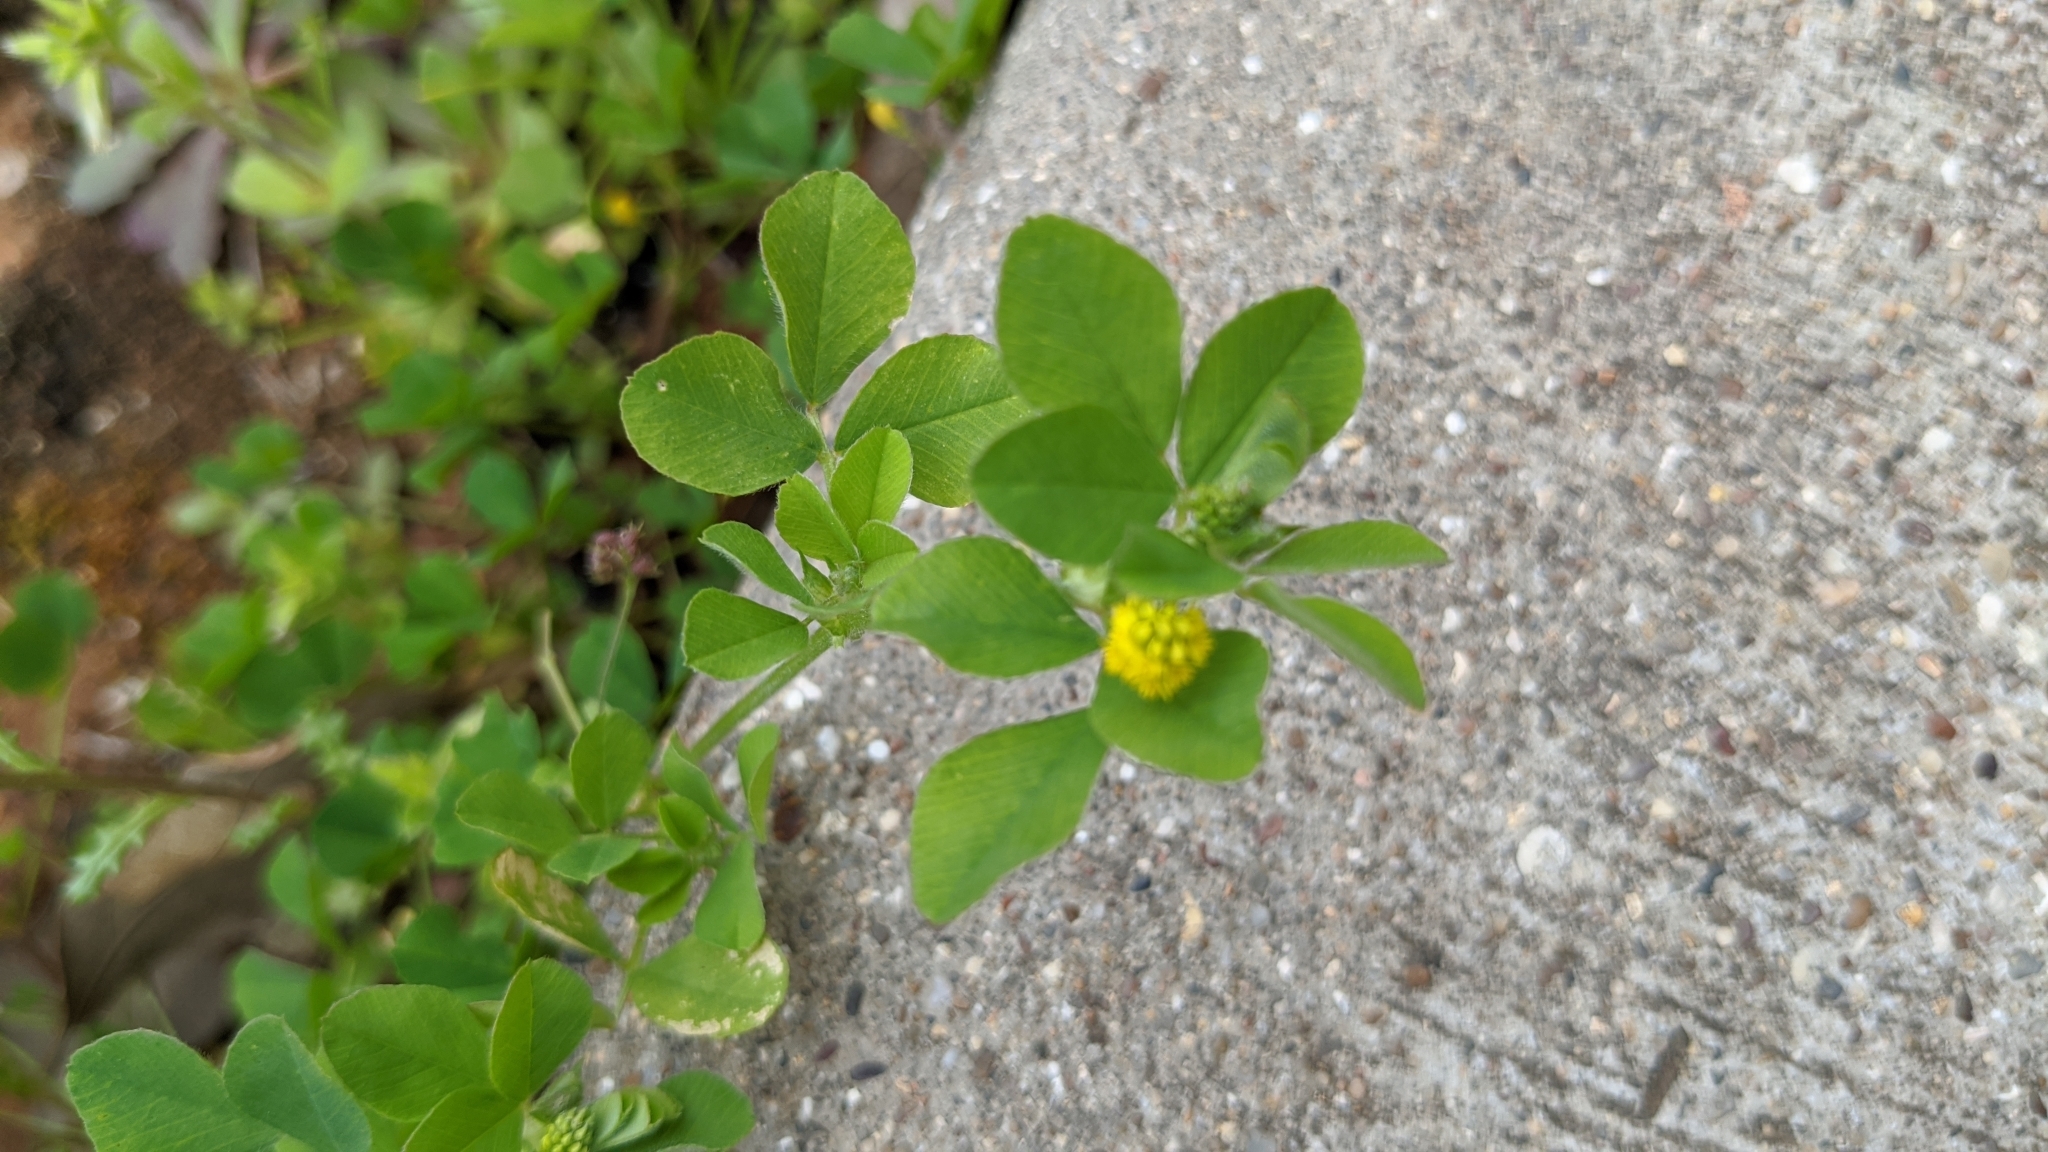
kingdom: Plantae
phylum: Tracheophyta
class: Magnoliopsida
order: Fabales
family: Fabaceae
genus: Medicago
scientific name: Medicago lupulina
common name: Black medick
